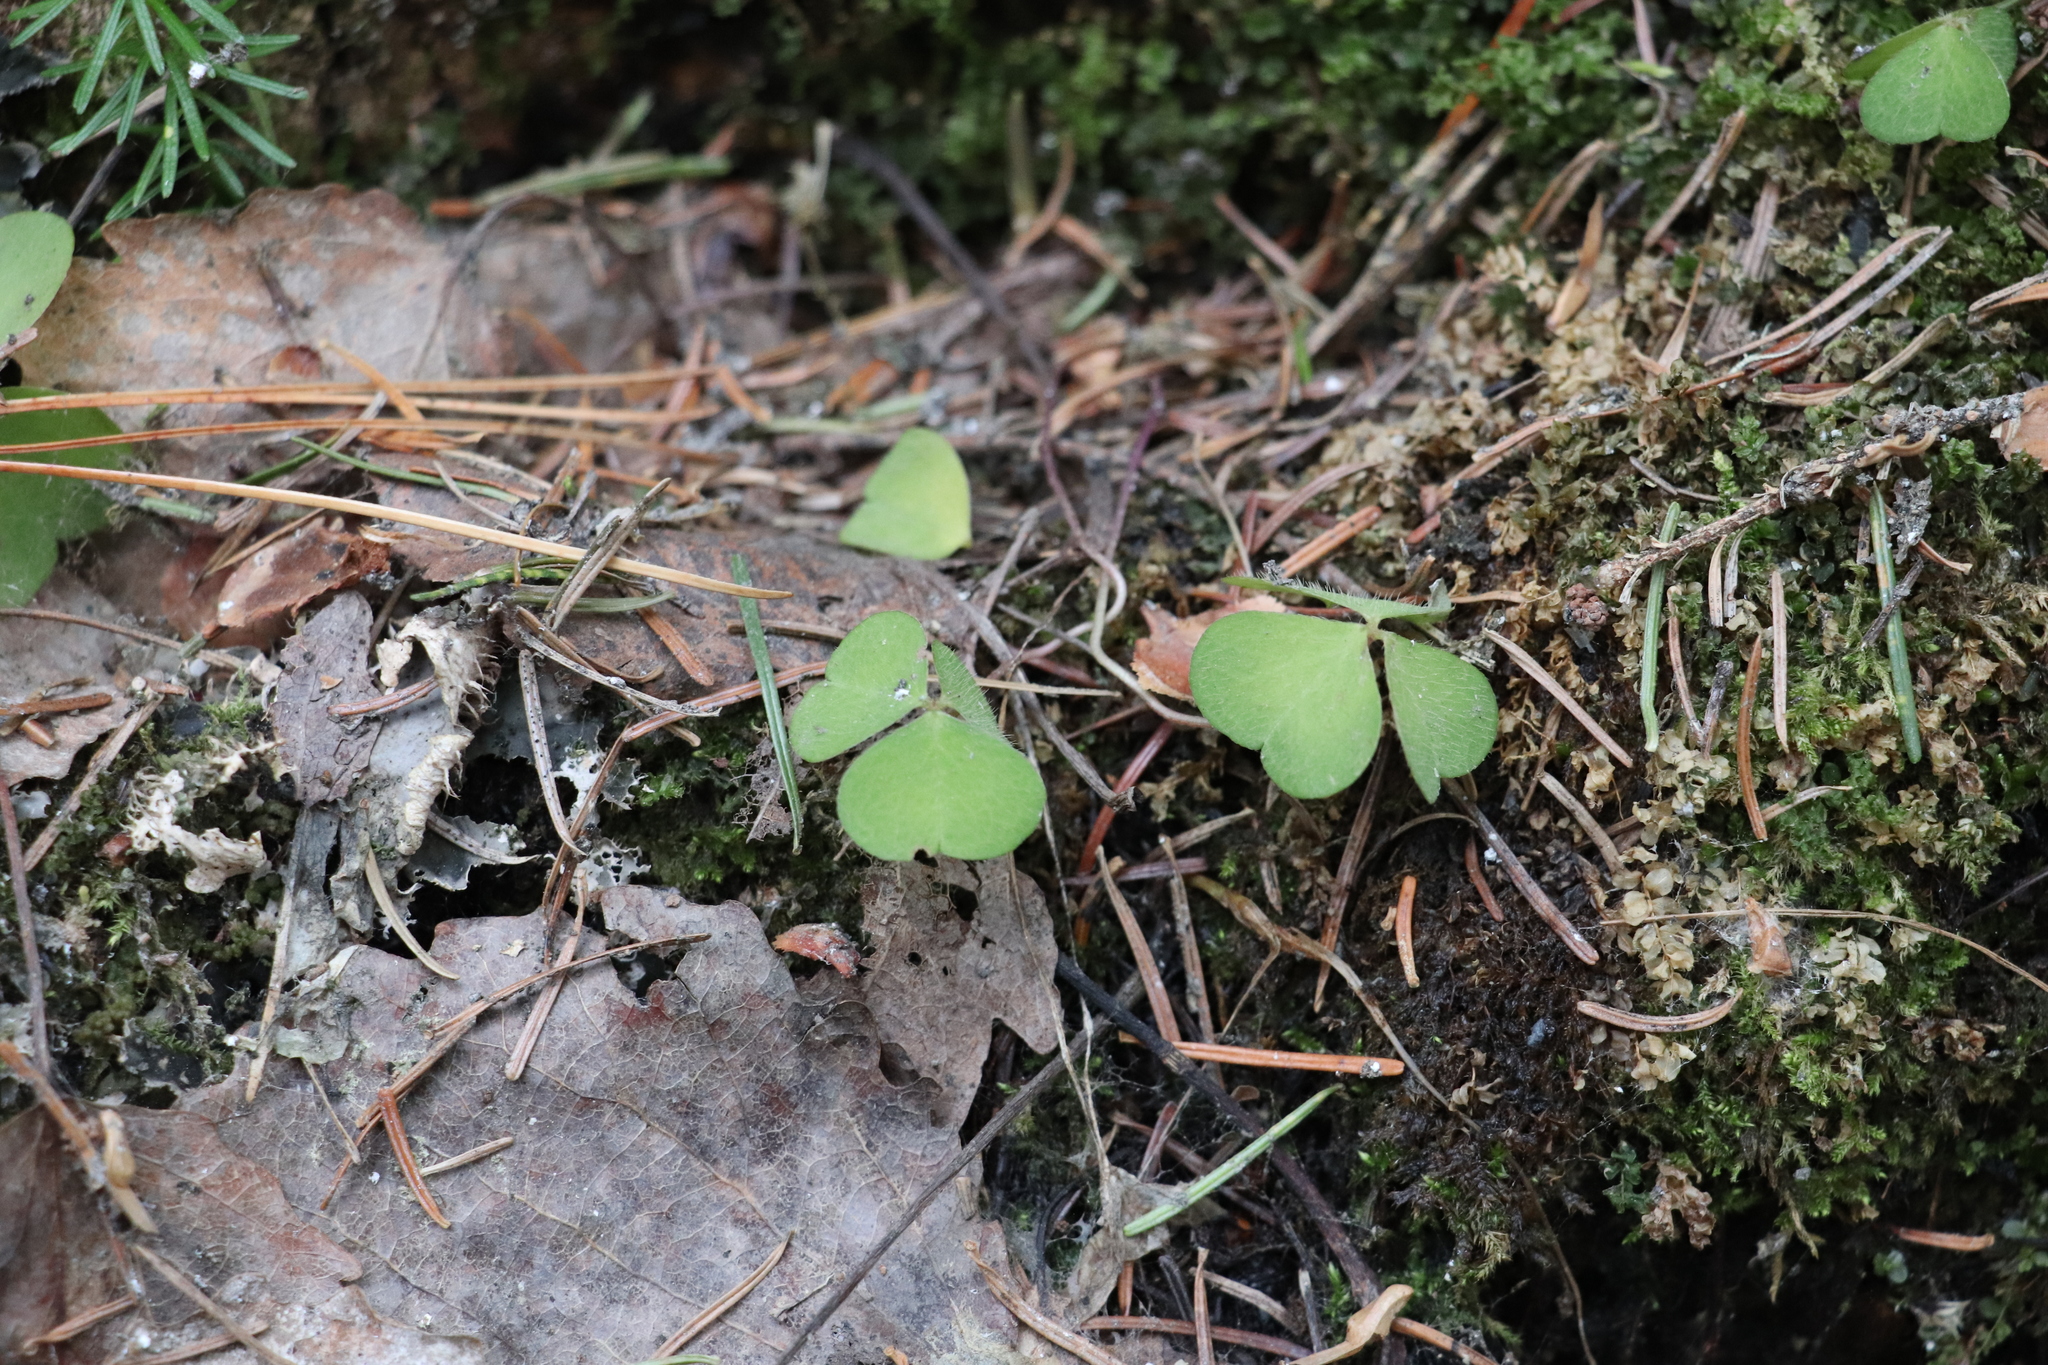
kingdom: Plantae
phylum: Tracheophyta
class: Magnoliopsida
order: Oxalidales
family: Oxalidaceae
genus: Oxalis
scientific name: Oxalis acetosella
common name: Wood-sorrel
